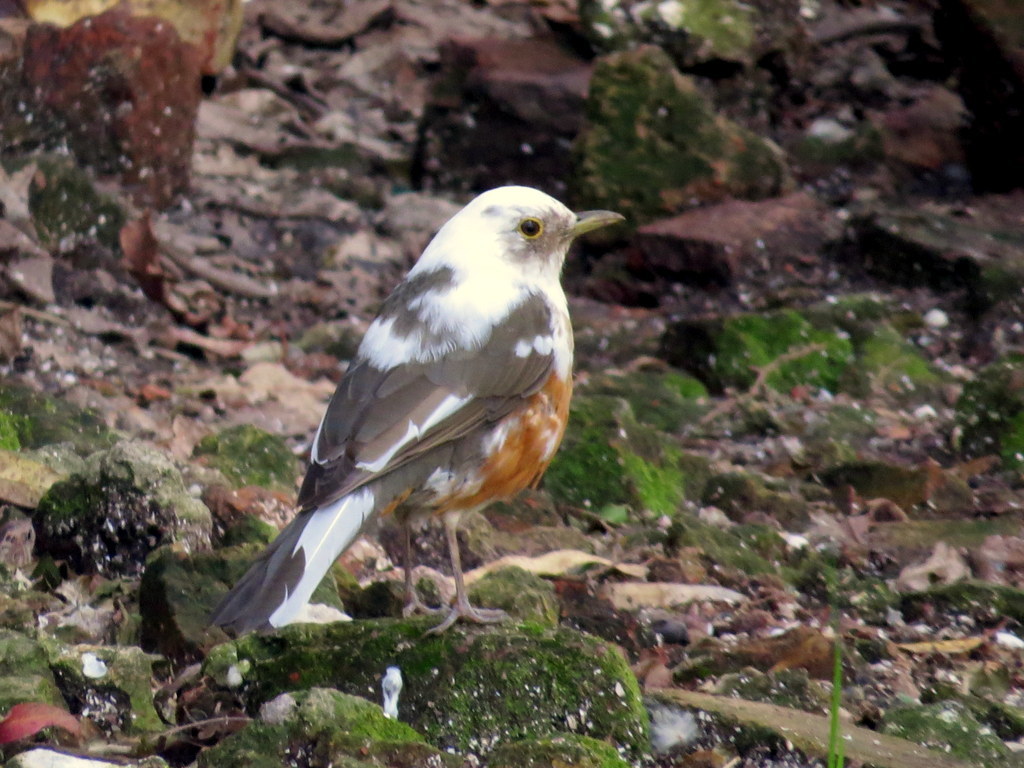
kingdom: Animalia
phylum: Chordata
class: Aves
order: Passeriformes
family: Turdidae
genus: Turdus
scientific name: Turdus rufiventris
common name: Rufous-bellied thrush
